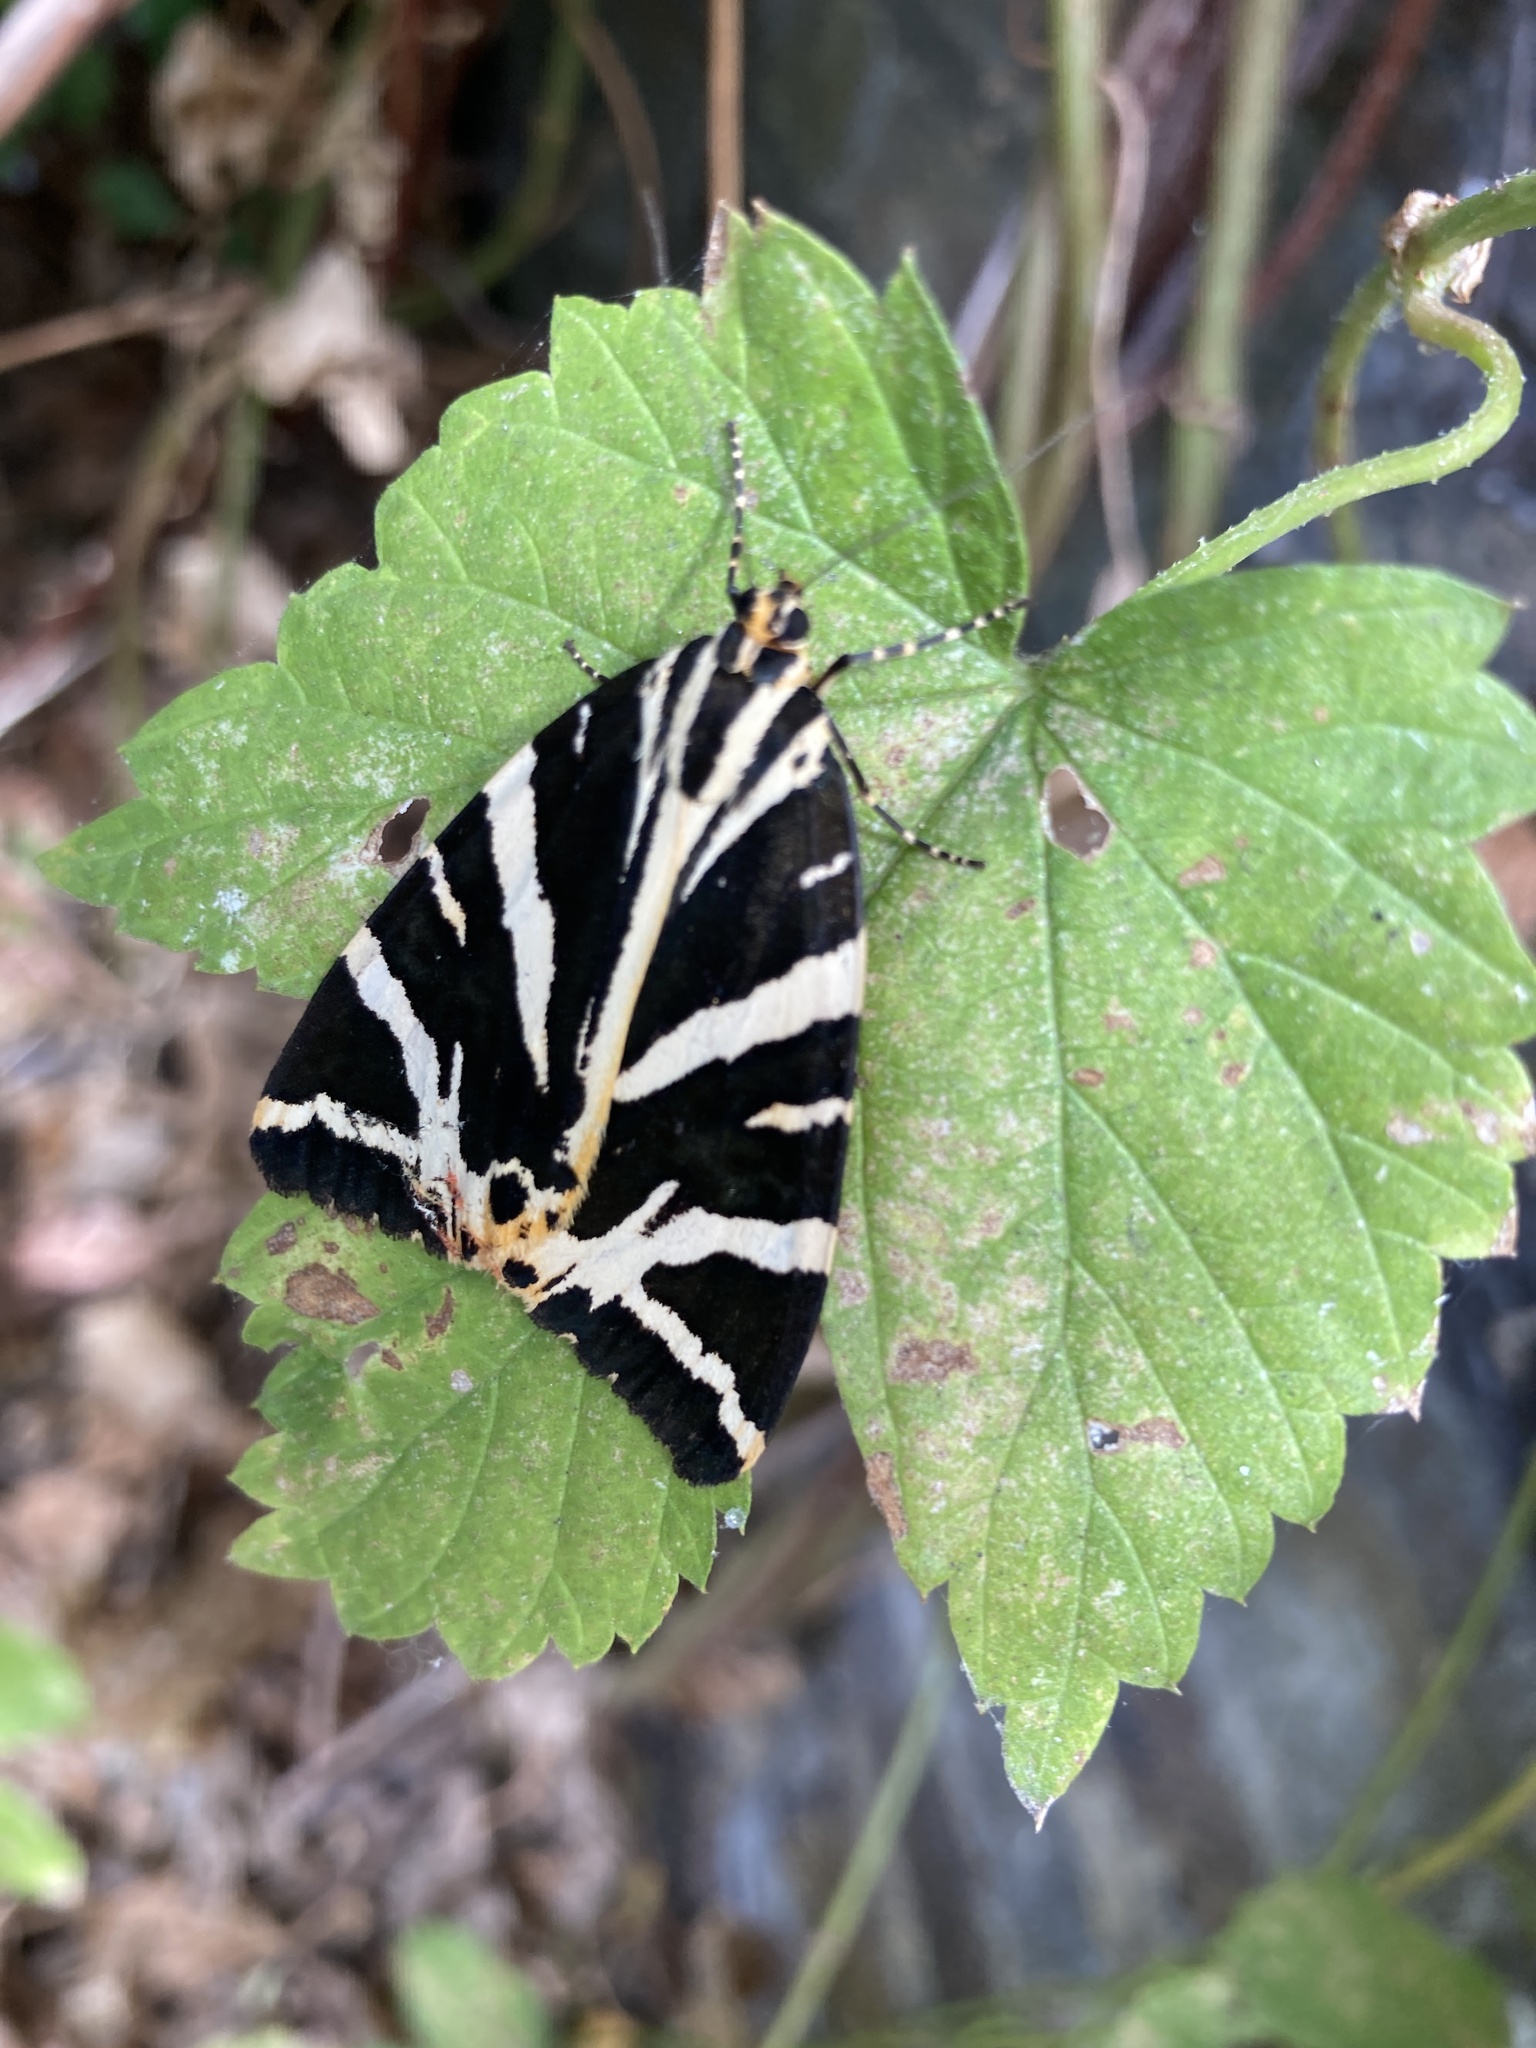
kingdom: Animalia
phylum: Arthropoda
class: Insecta
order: Lepidoptera
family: Erebidae
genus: Euplagia
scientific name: Euplagia quadripunctaria
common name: Jersey tiger
